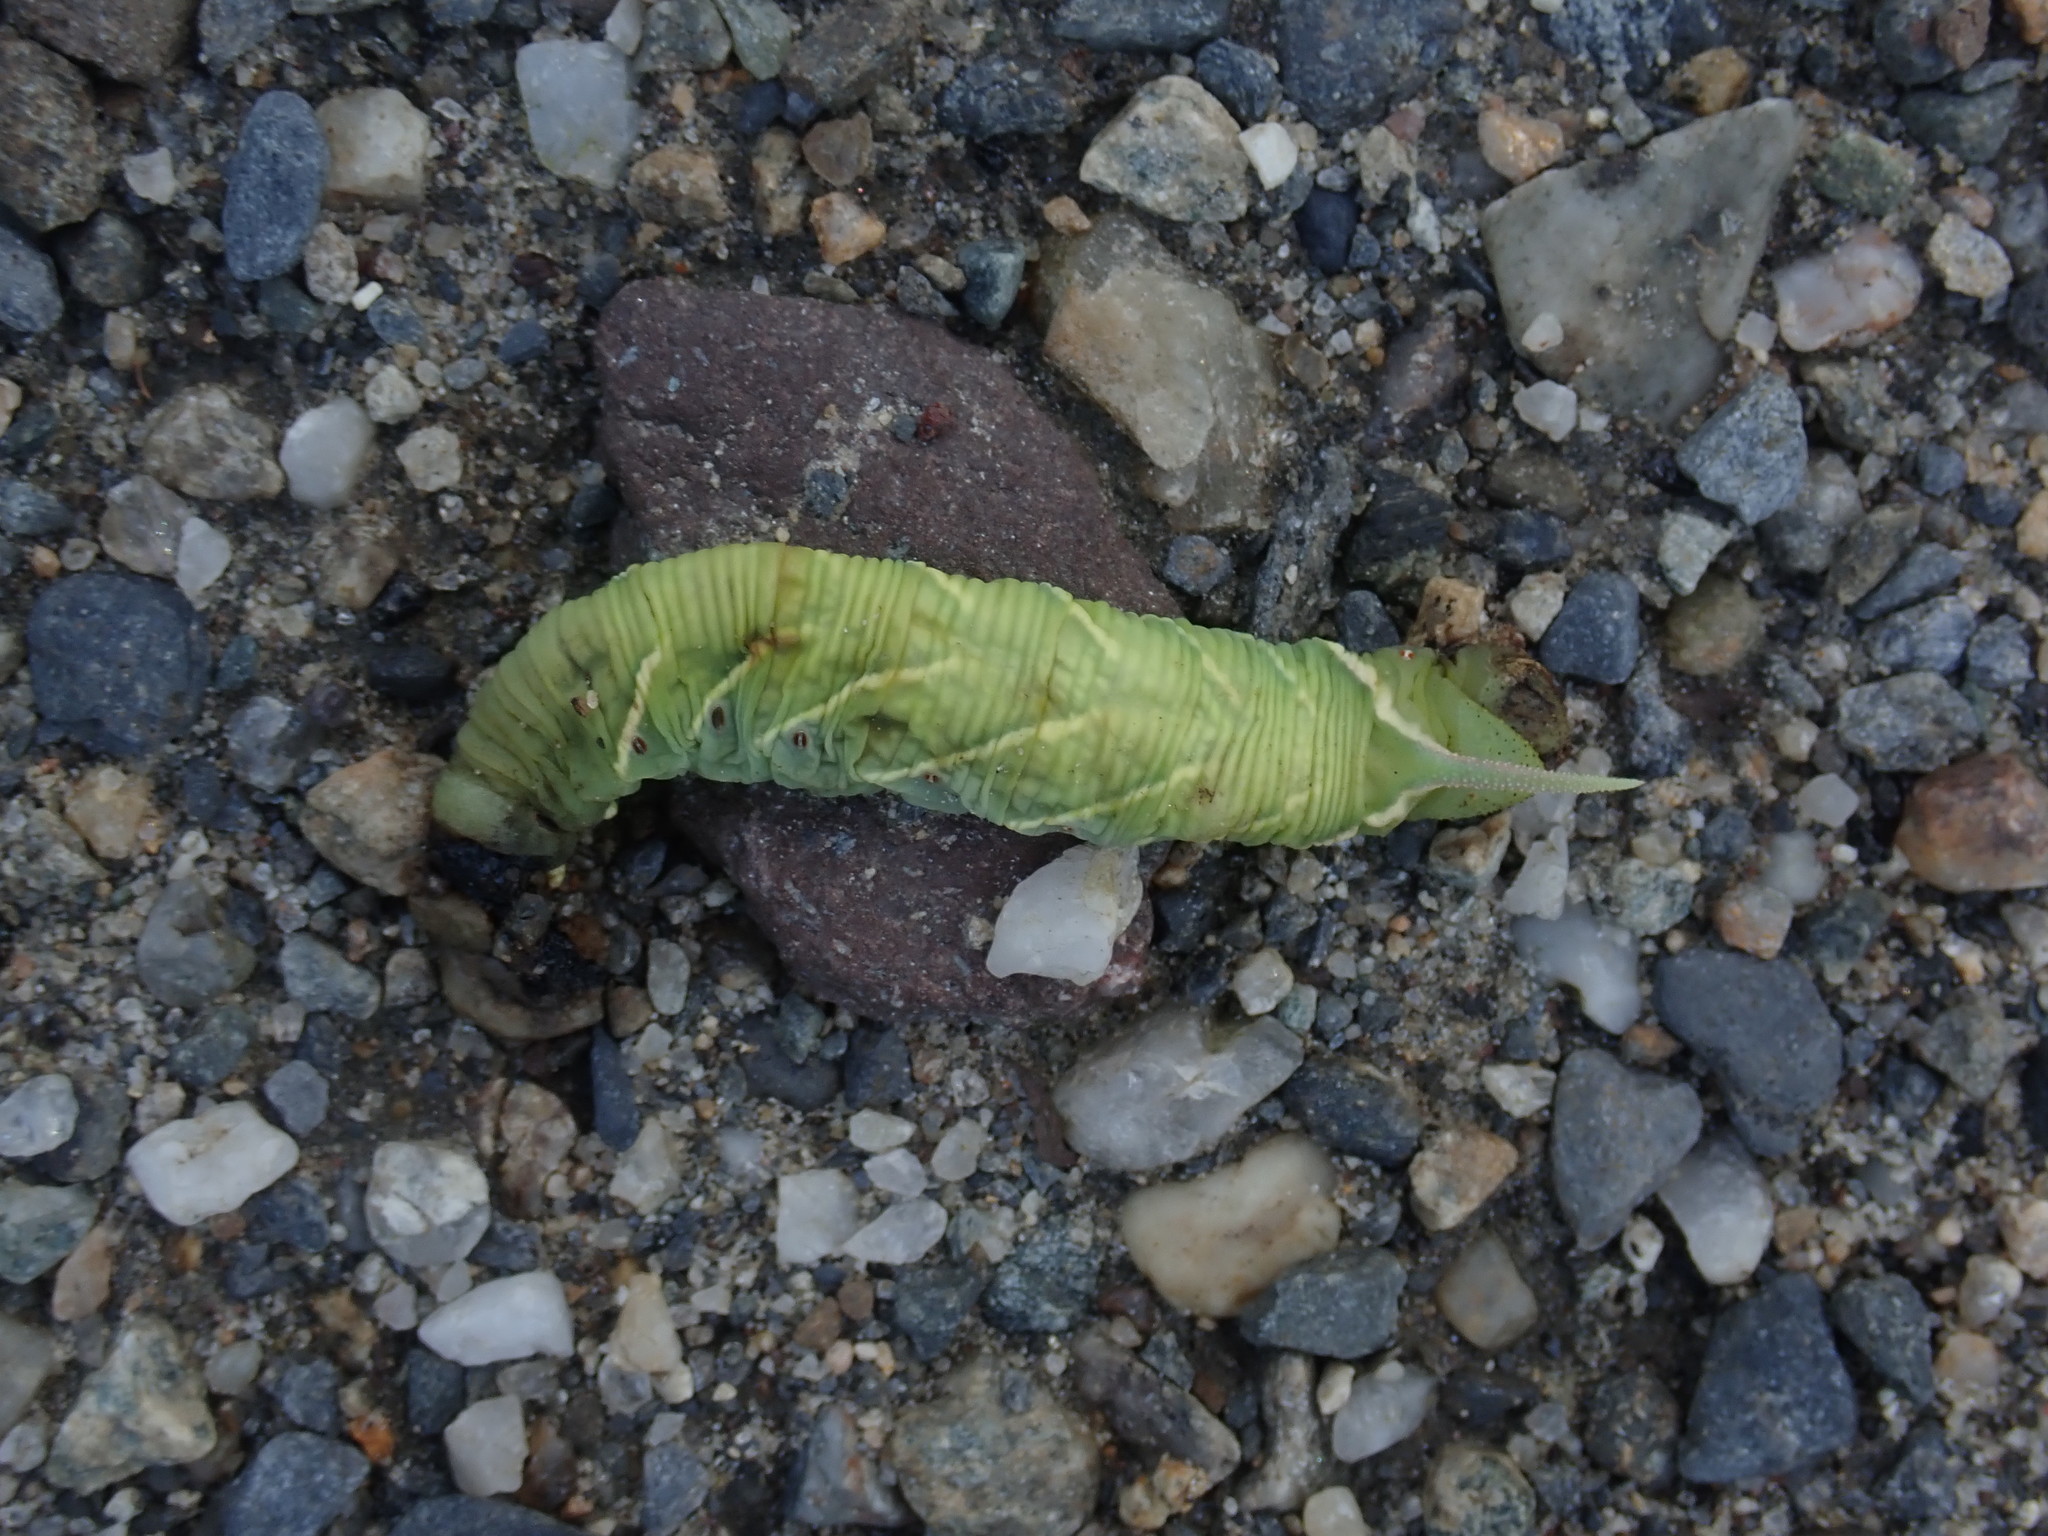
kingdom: Animalia
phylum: Arthropoda
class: Insecta
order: Lepidoptera
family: Sphingidae
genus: Ceratomia
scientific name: Ceratomia undulosa
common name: Waved sphinx
